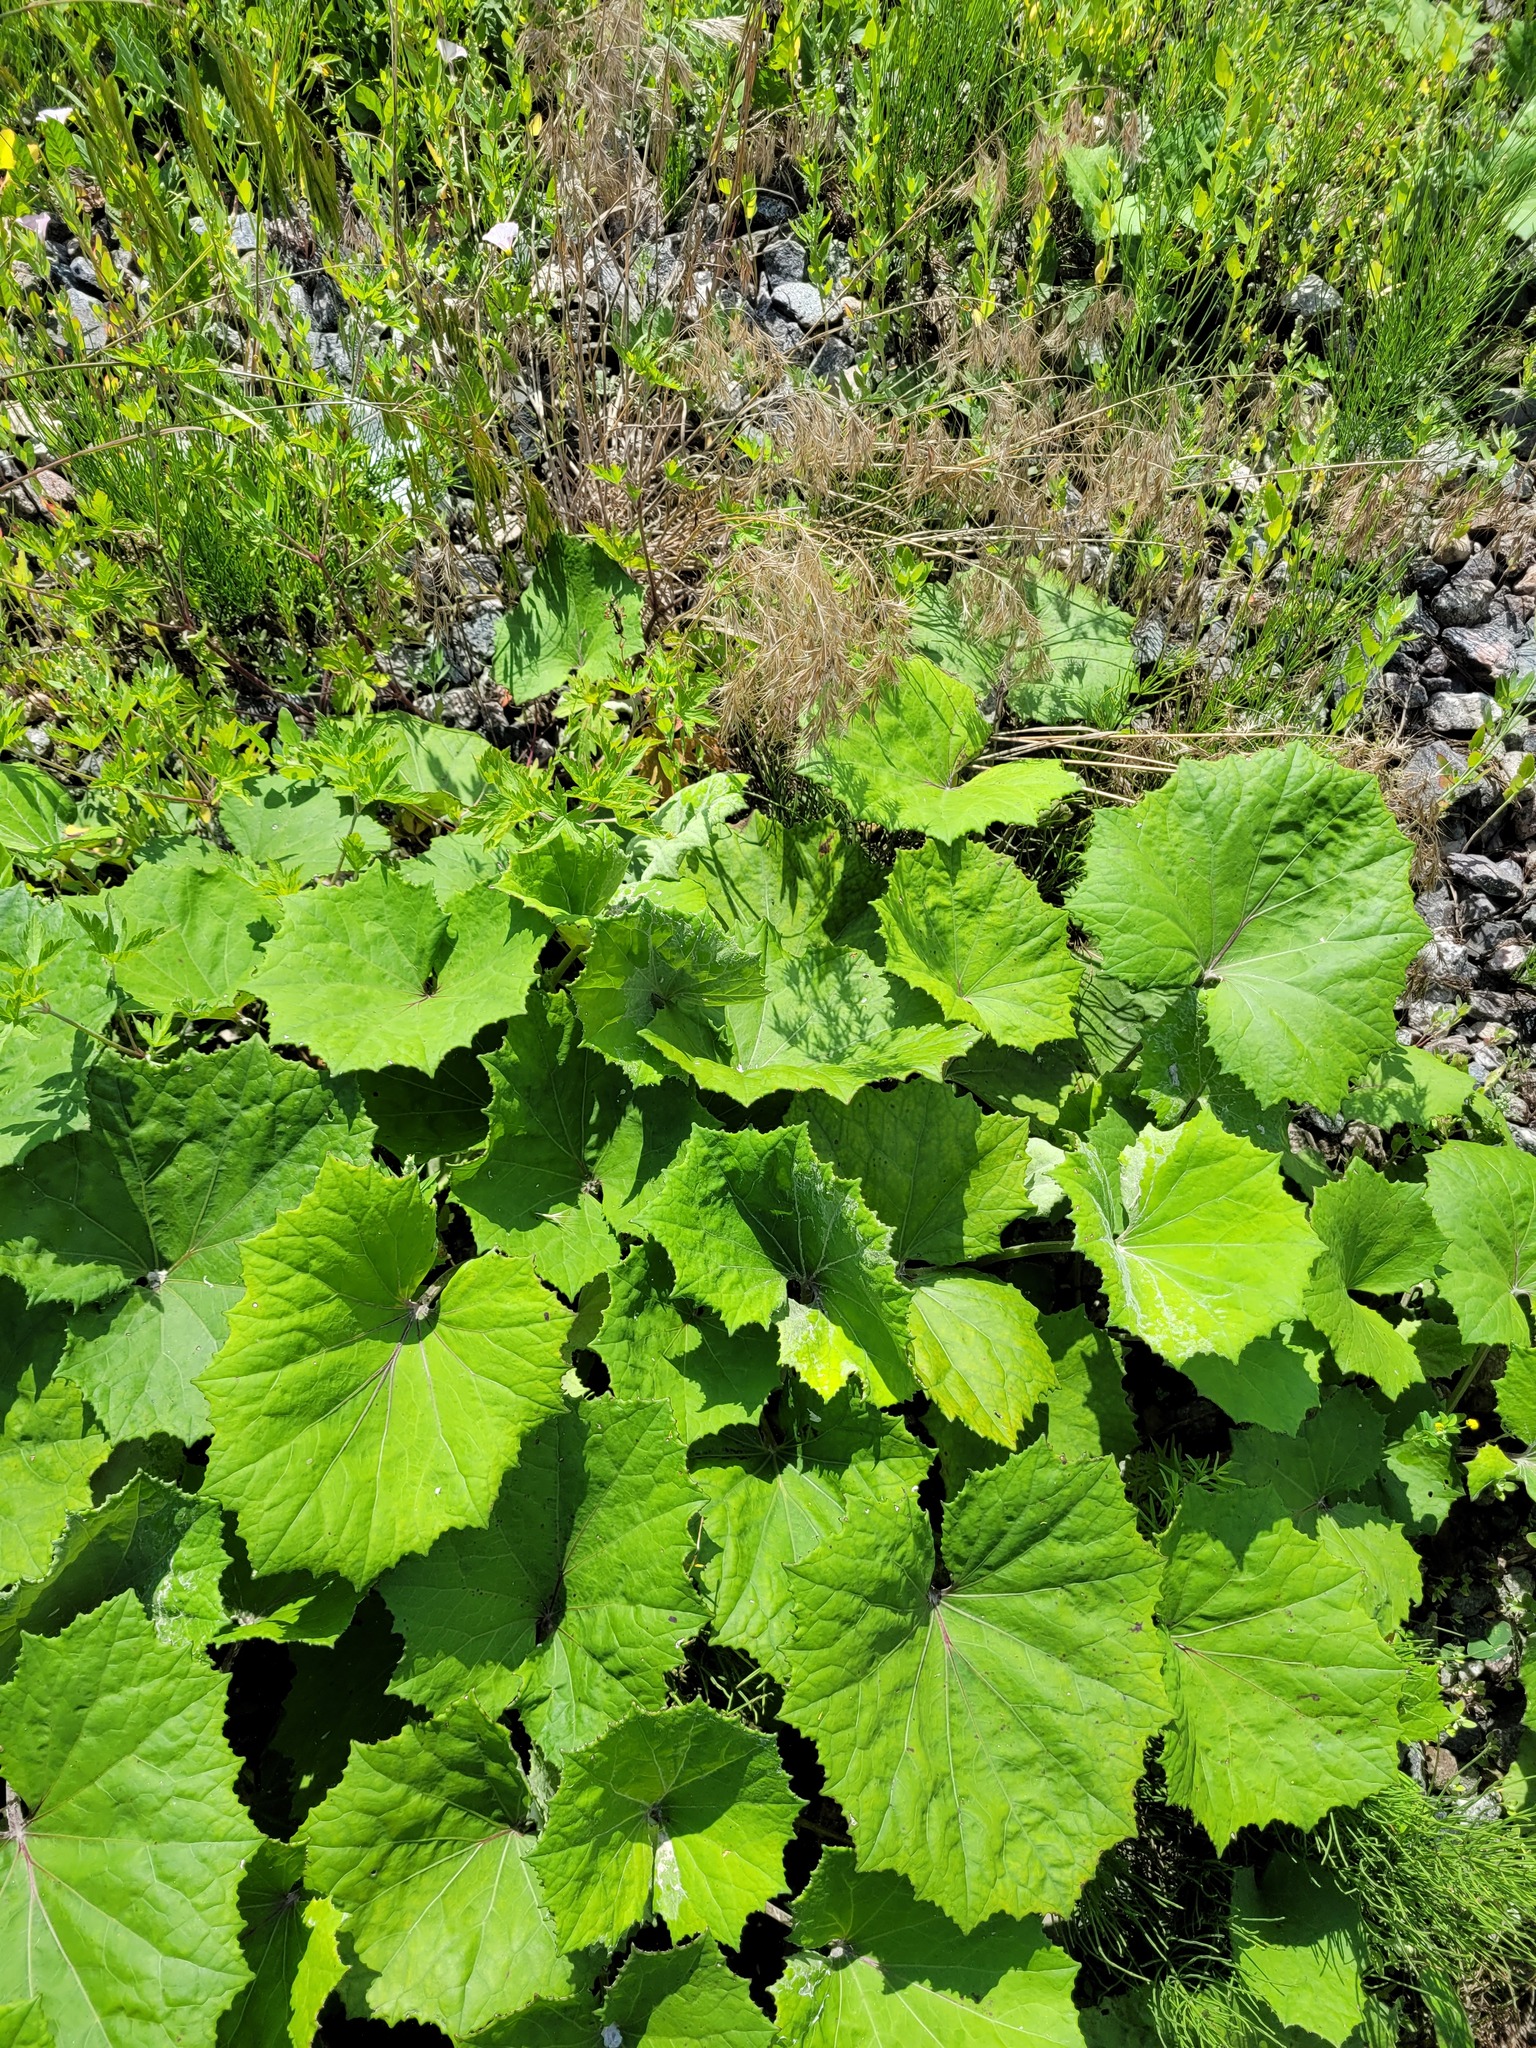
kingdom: Plantae
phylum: Tracheophyta
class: Magnoliopsida
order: Asterales
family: Asteraceae
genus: Tussilago
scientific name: Tussilago farfara
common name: Coltsfoot
